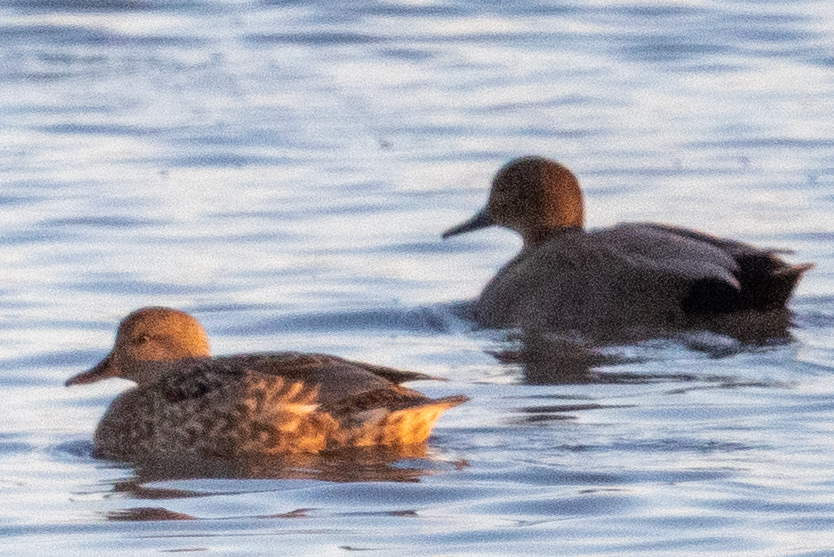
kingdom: Animalia
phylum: Chordata
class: Aves
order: Anseriformes
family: Anatidae
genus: Mareca
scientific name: Mareca strepera
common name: Gadwall
